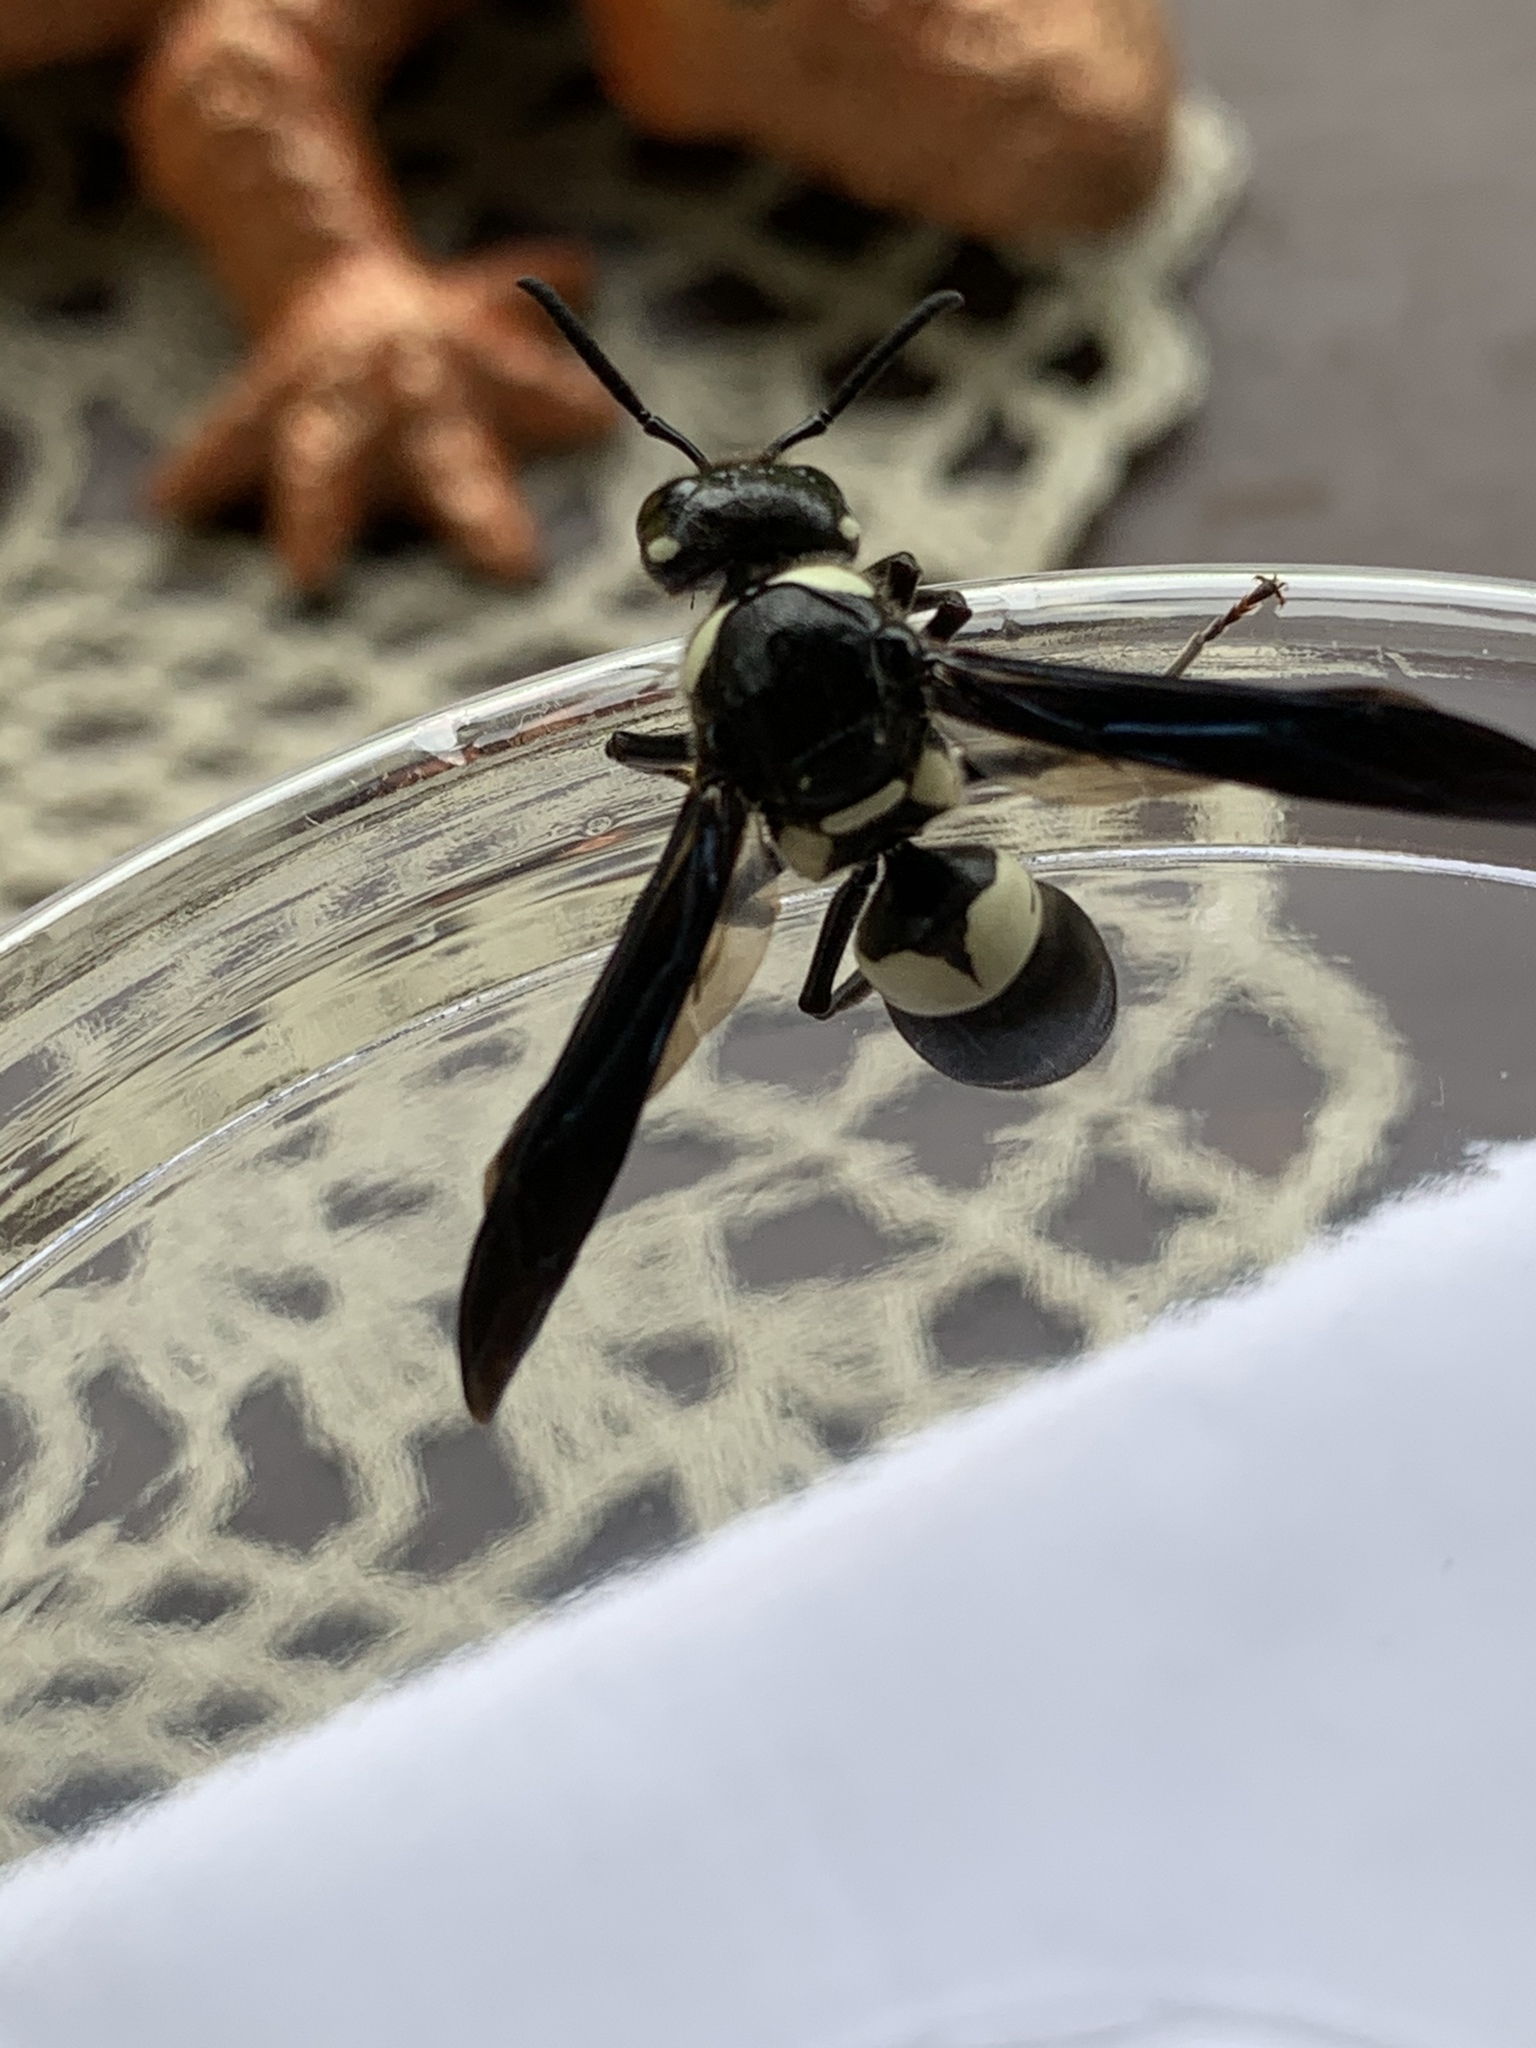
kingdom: Animalia
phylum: Arthropoda
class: Insecta
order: Hymenoptera
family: Eumenidae
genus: Euodynerus
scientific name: Euodynerus bidens
